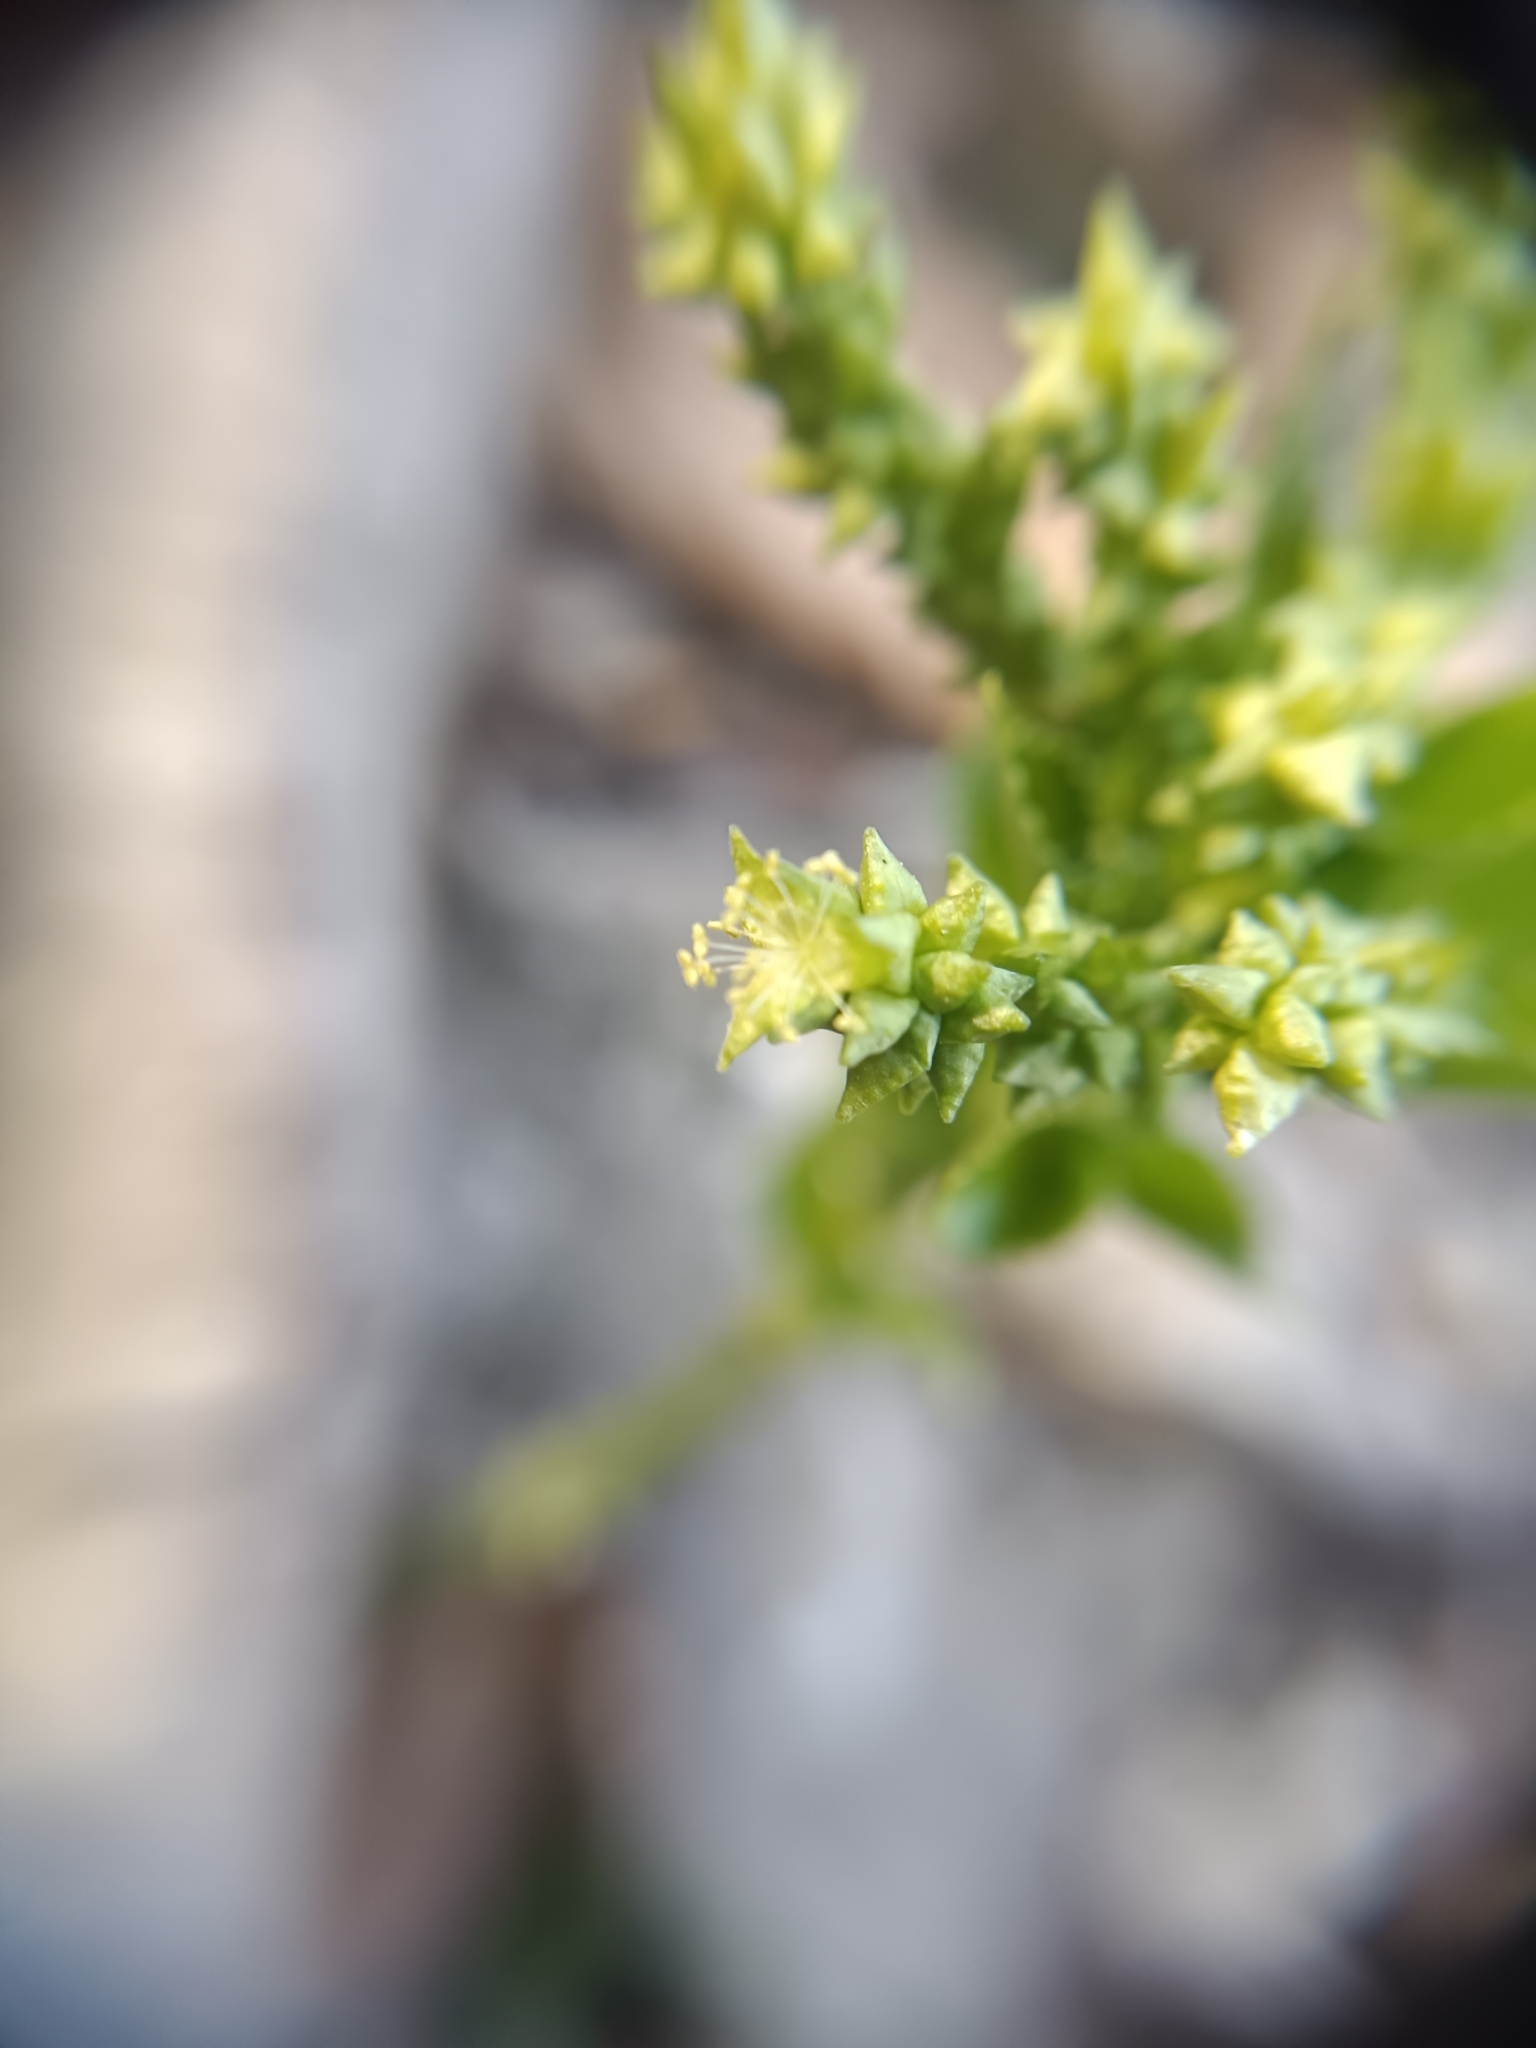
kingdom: Plantae
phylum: Tracheophyta
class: Magnoliopsida
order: Malpighiales
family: Euphorbiaceae
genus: Mercurialis
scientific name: Mercurialis perennis
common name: Dog mercury
